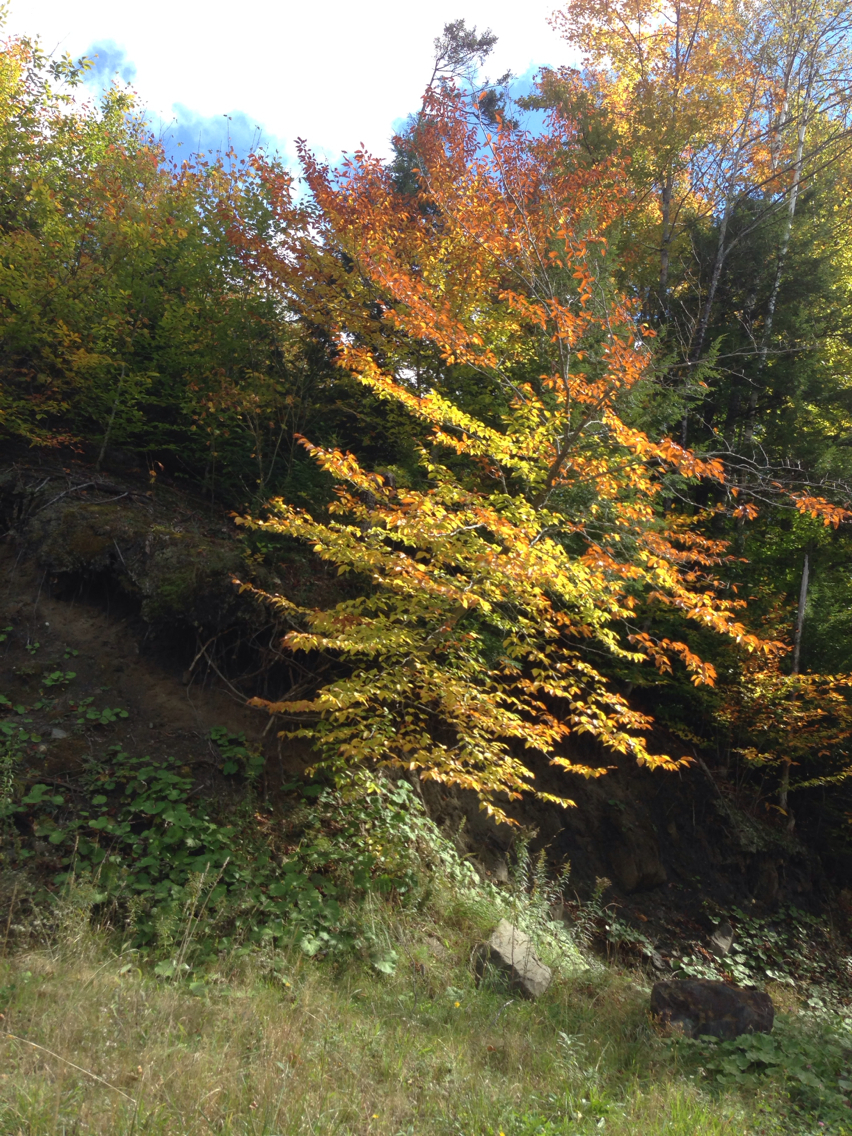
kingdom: Plantae
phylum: Tracheophyta
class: Magnoliopsida
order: Fagales
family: Fagaceae
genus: Fagus
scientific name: Fagus grandifolia
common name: American beech
